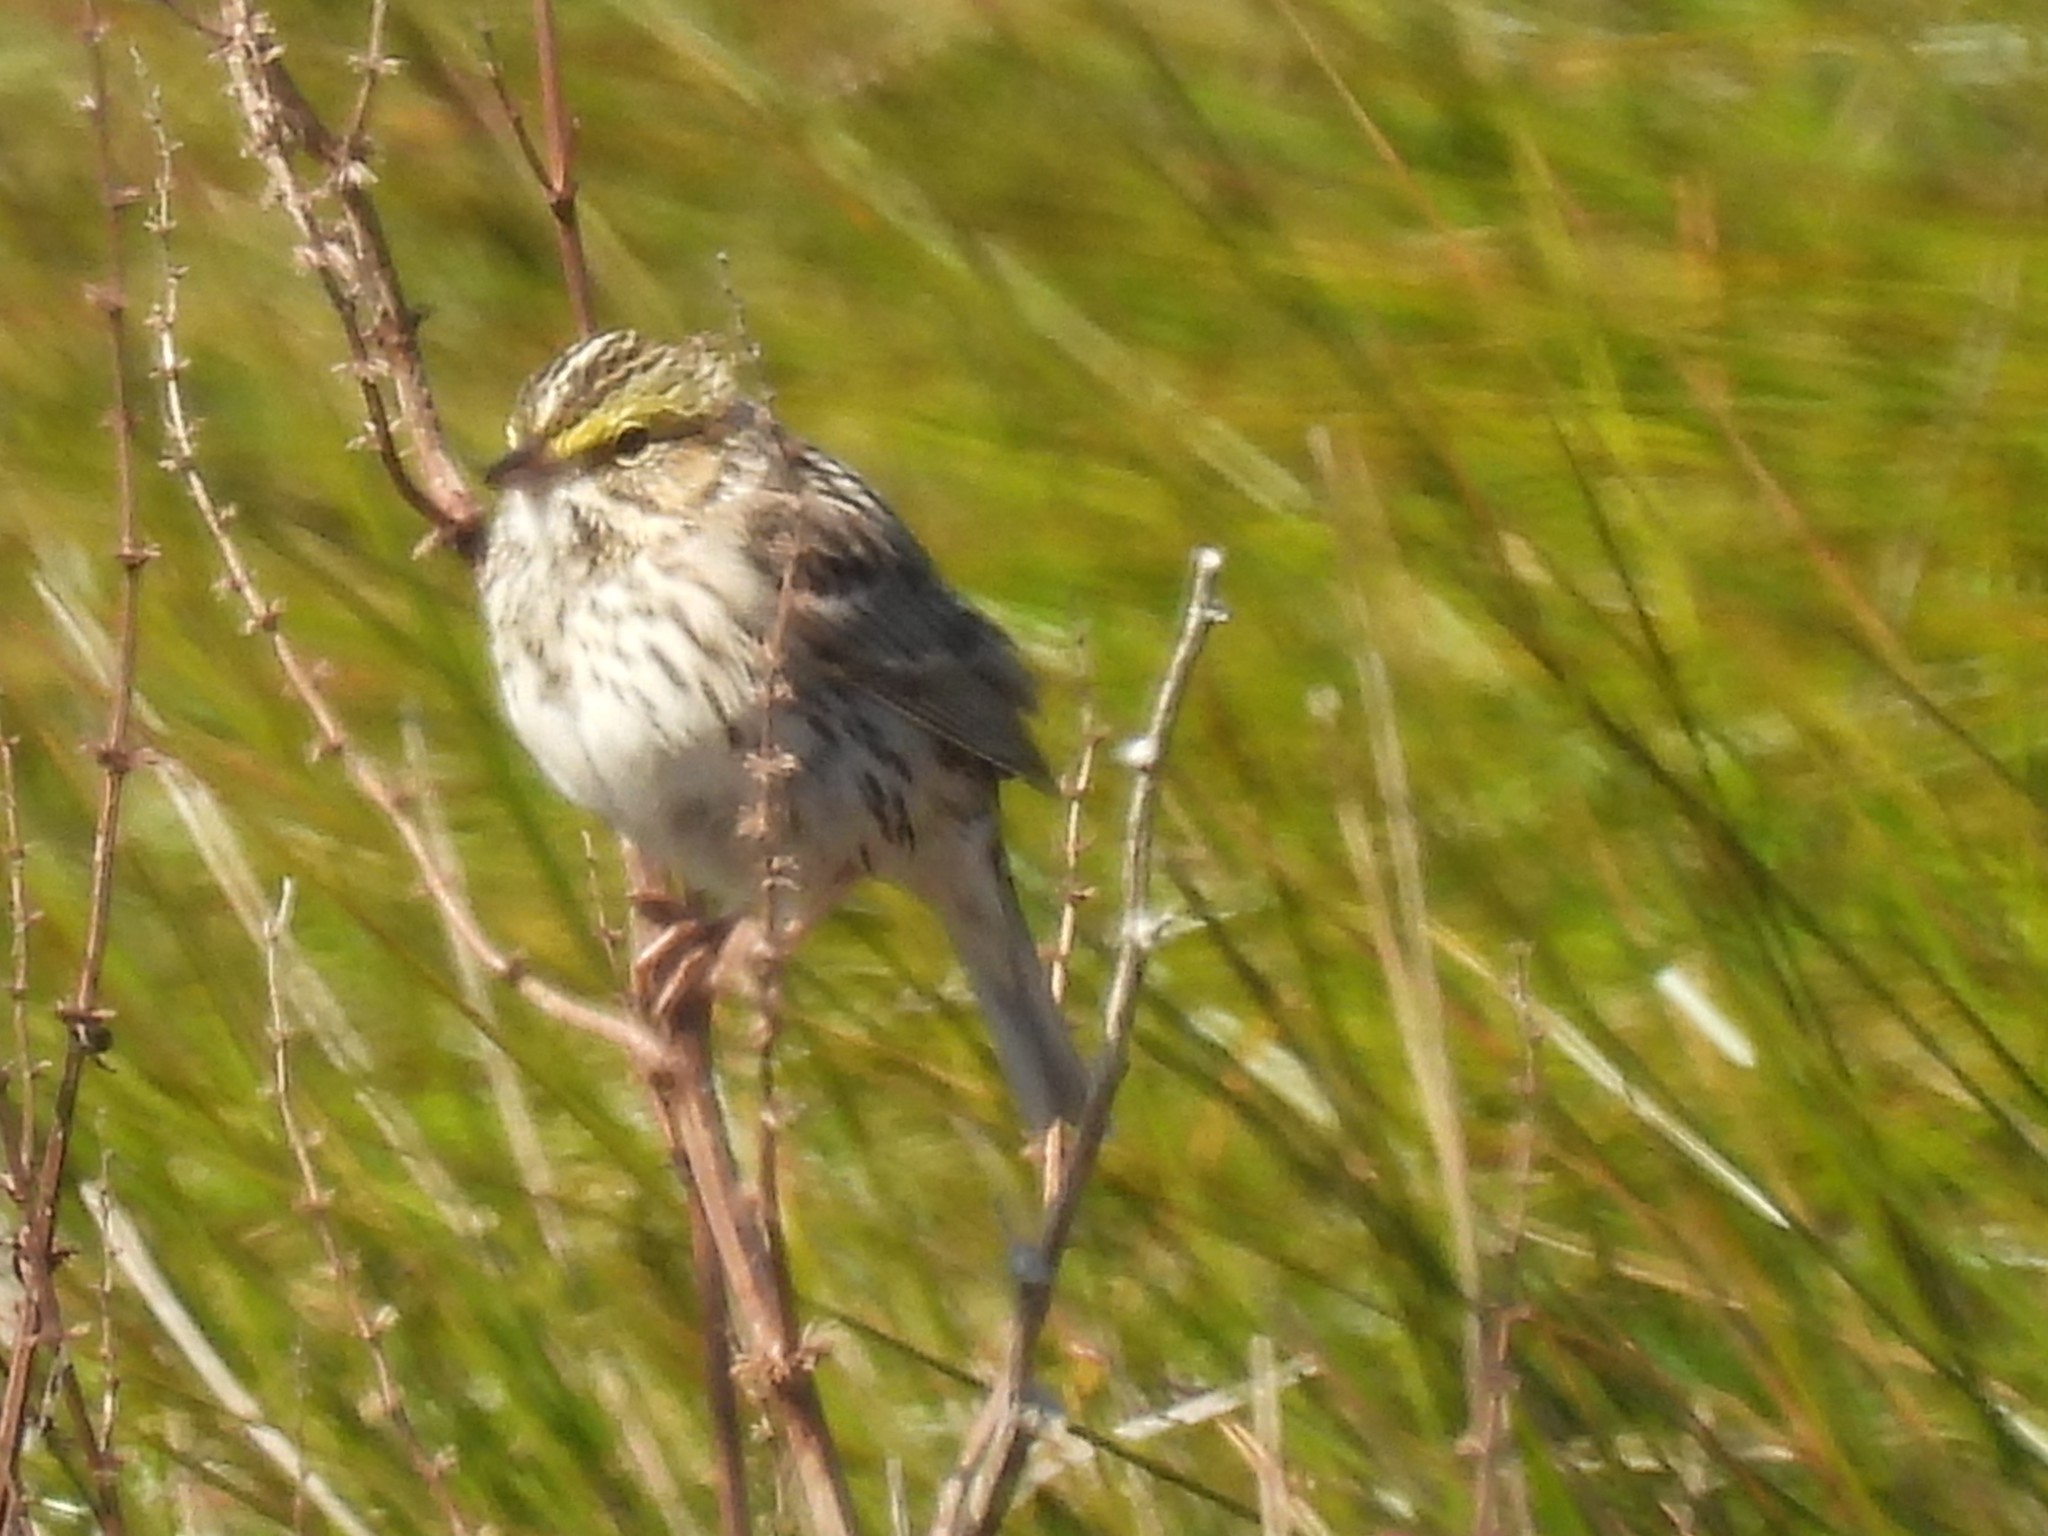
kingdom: Animalia
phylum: Chordata
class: Aves
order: Passeriformes
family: Passerellidae
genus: Passerculus
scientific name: Passerculus sandwichensis
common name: Savannah sparrow
